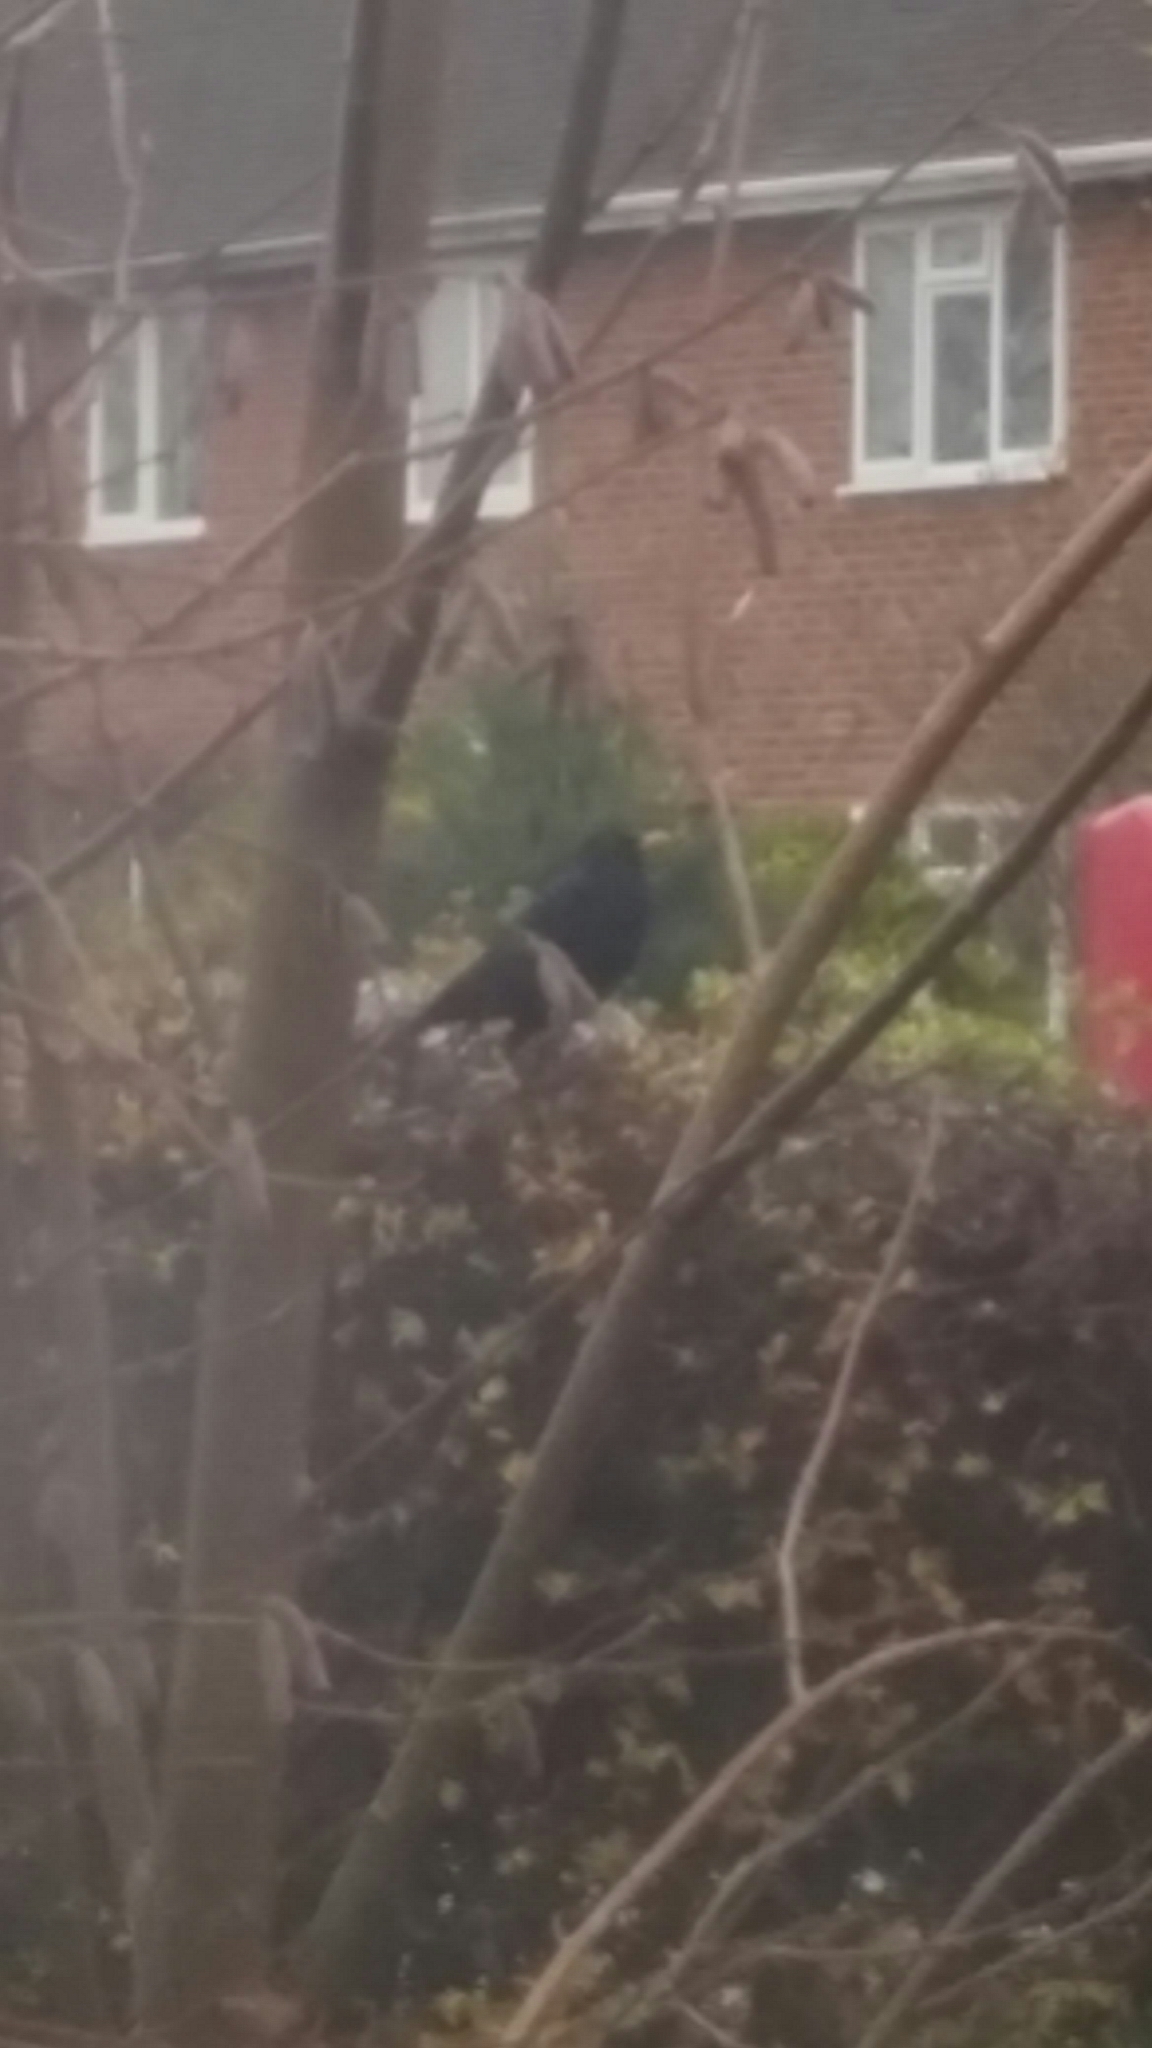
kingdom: Animalia
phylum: Chordata
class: Aves
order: Passeriformes
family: Turdidae
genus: Turdus
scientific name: Turdus merula
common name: Common blackbird
